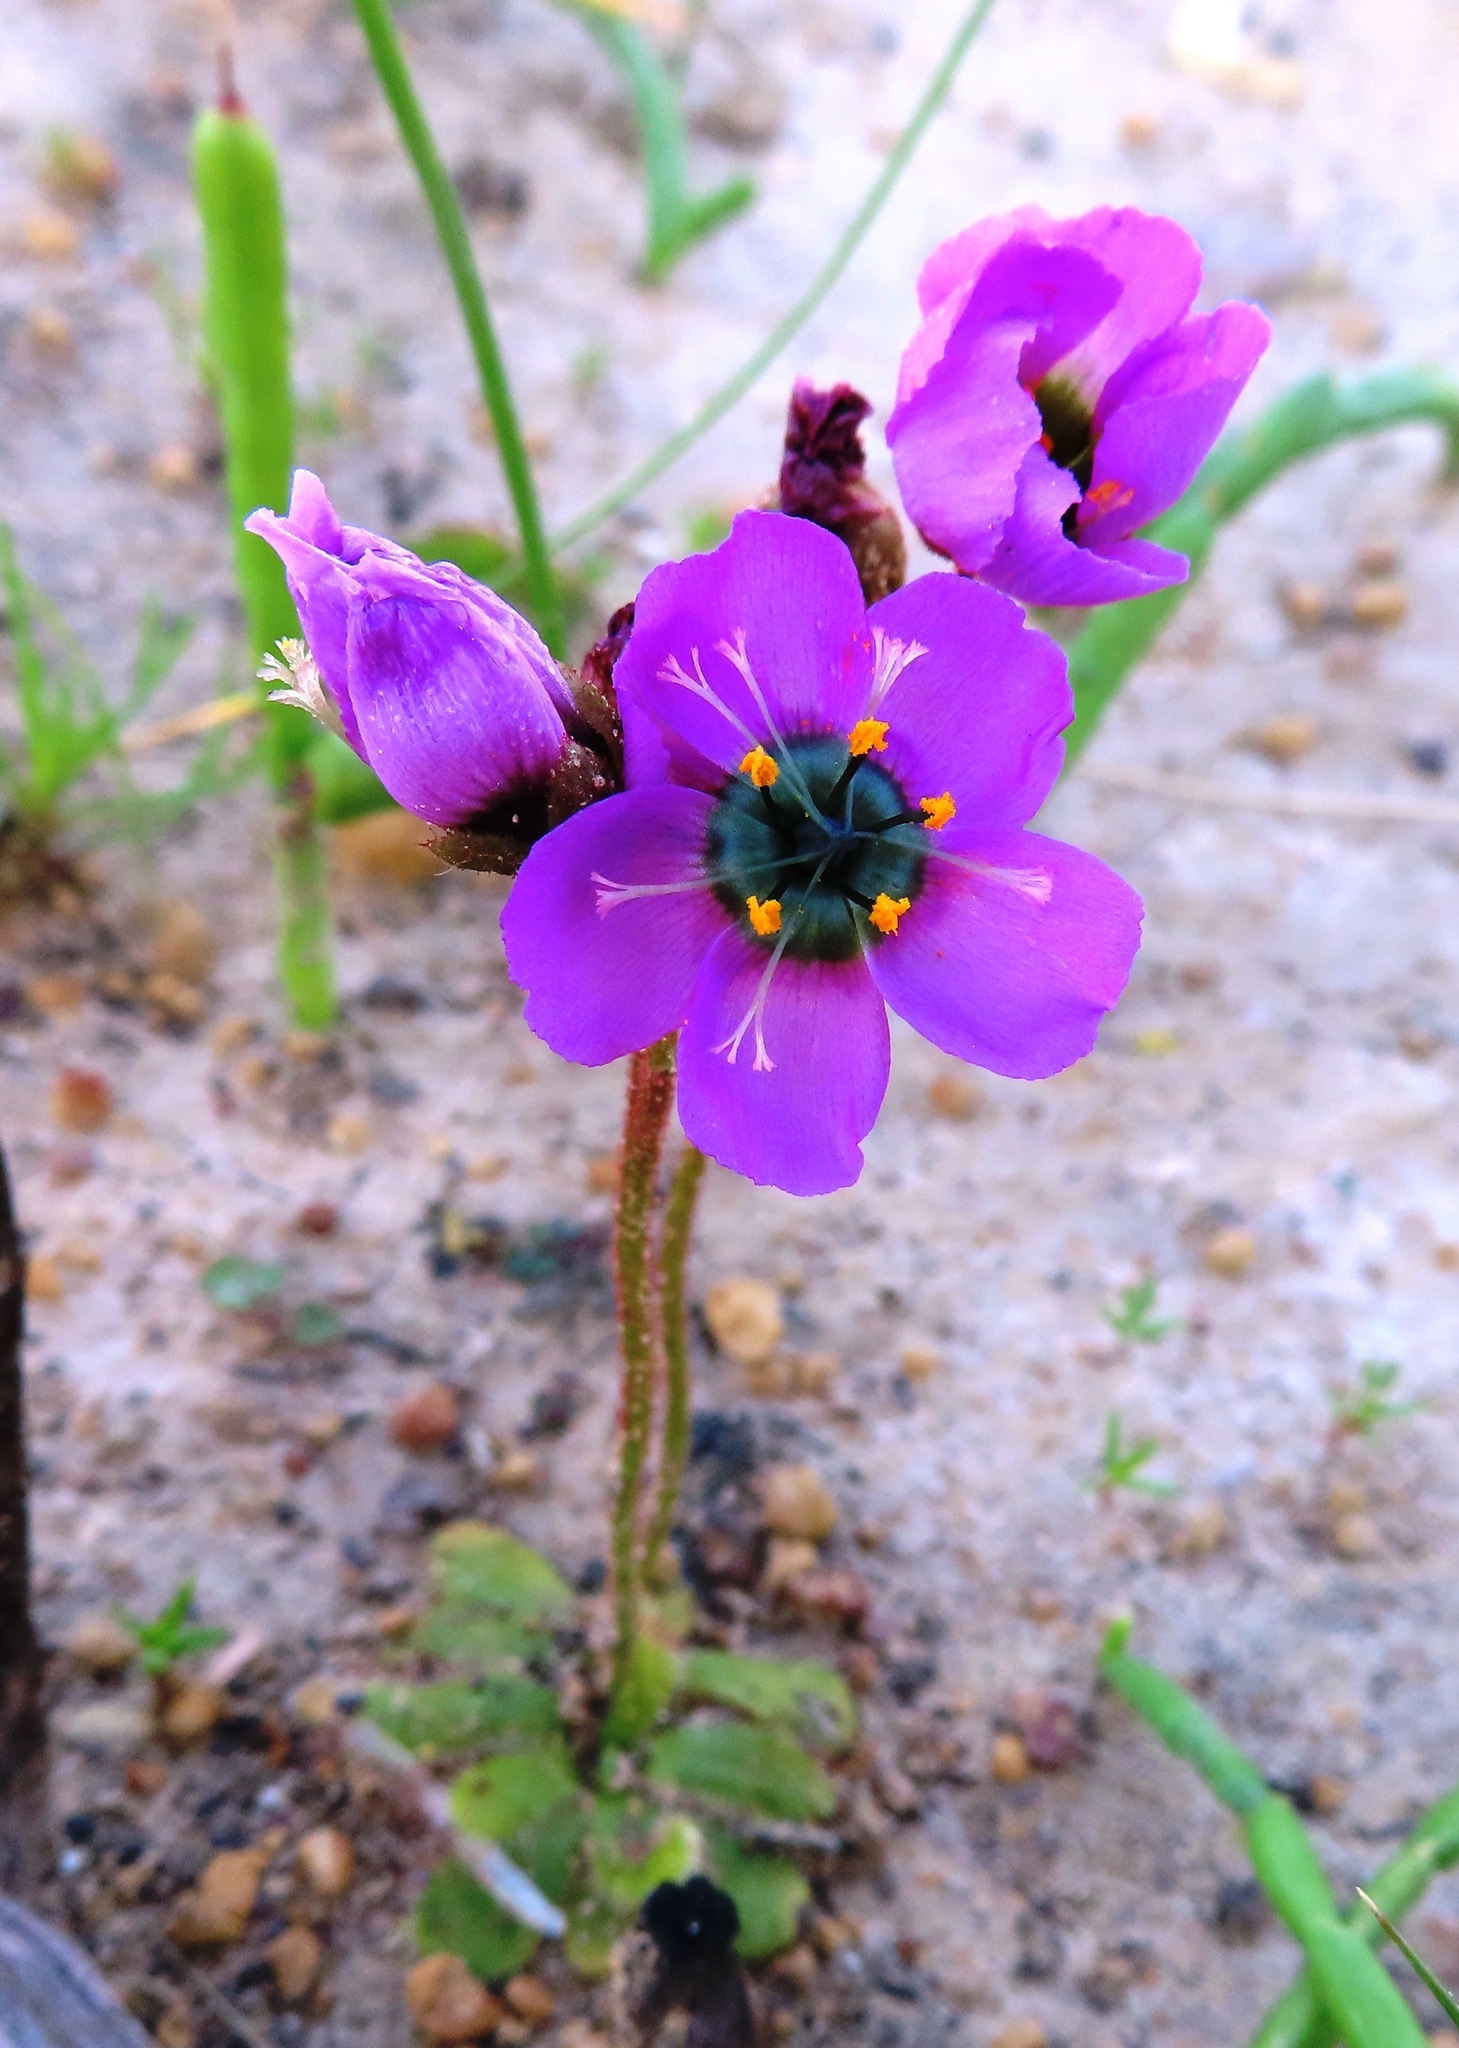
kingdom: Plantae
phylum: Tracheophyta
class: Magnoliopsida
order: Caryophyllales
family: Droseraceae
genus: Drosera
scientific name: Drosera pauciflora
